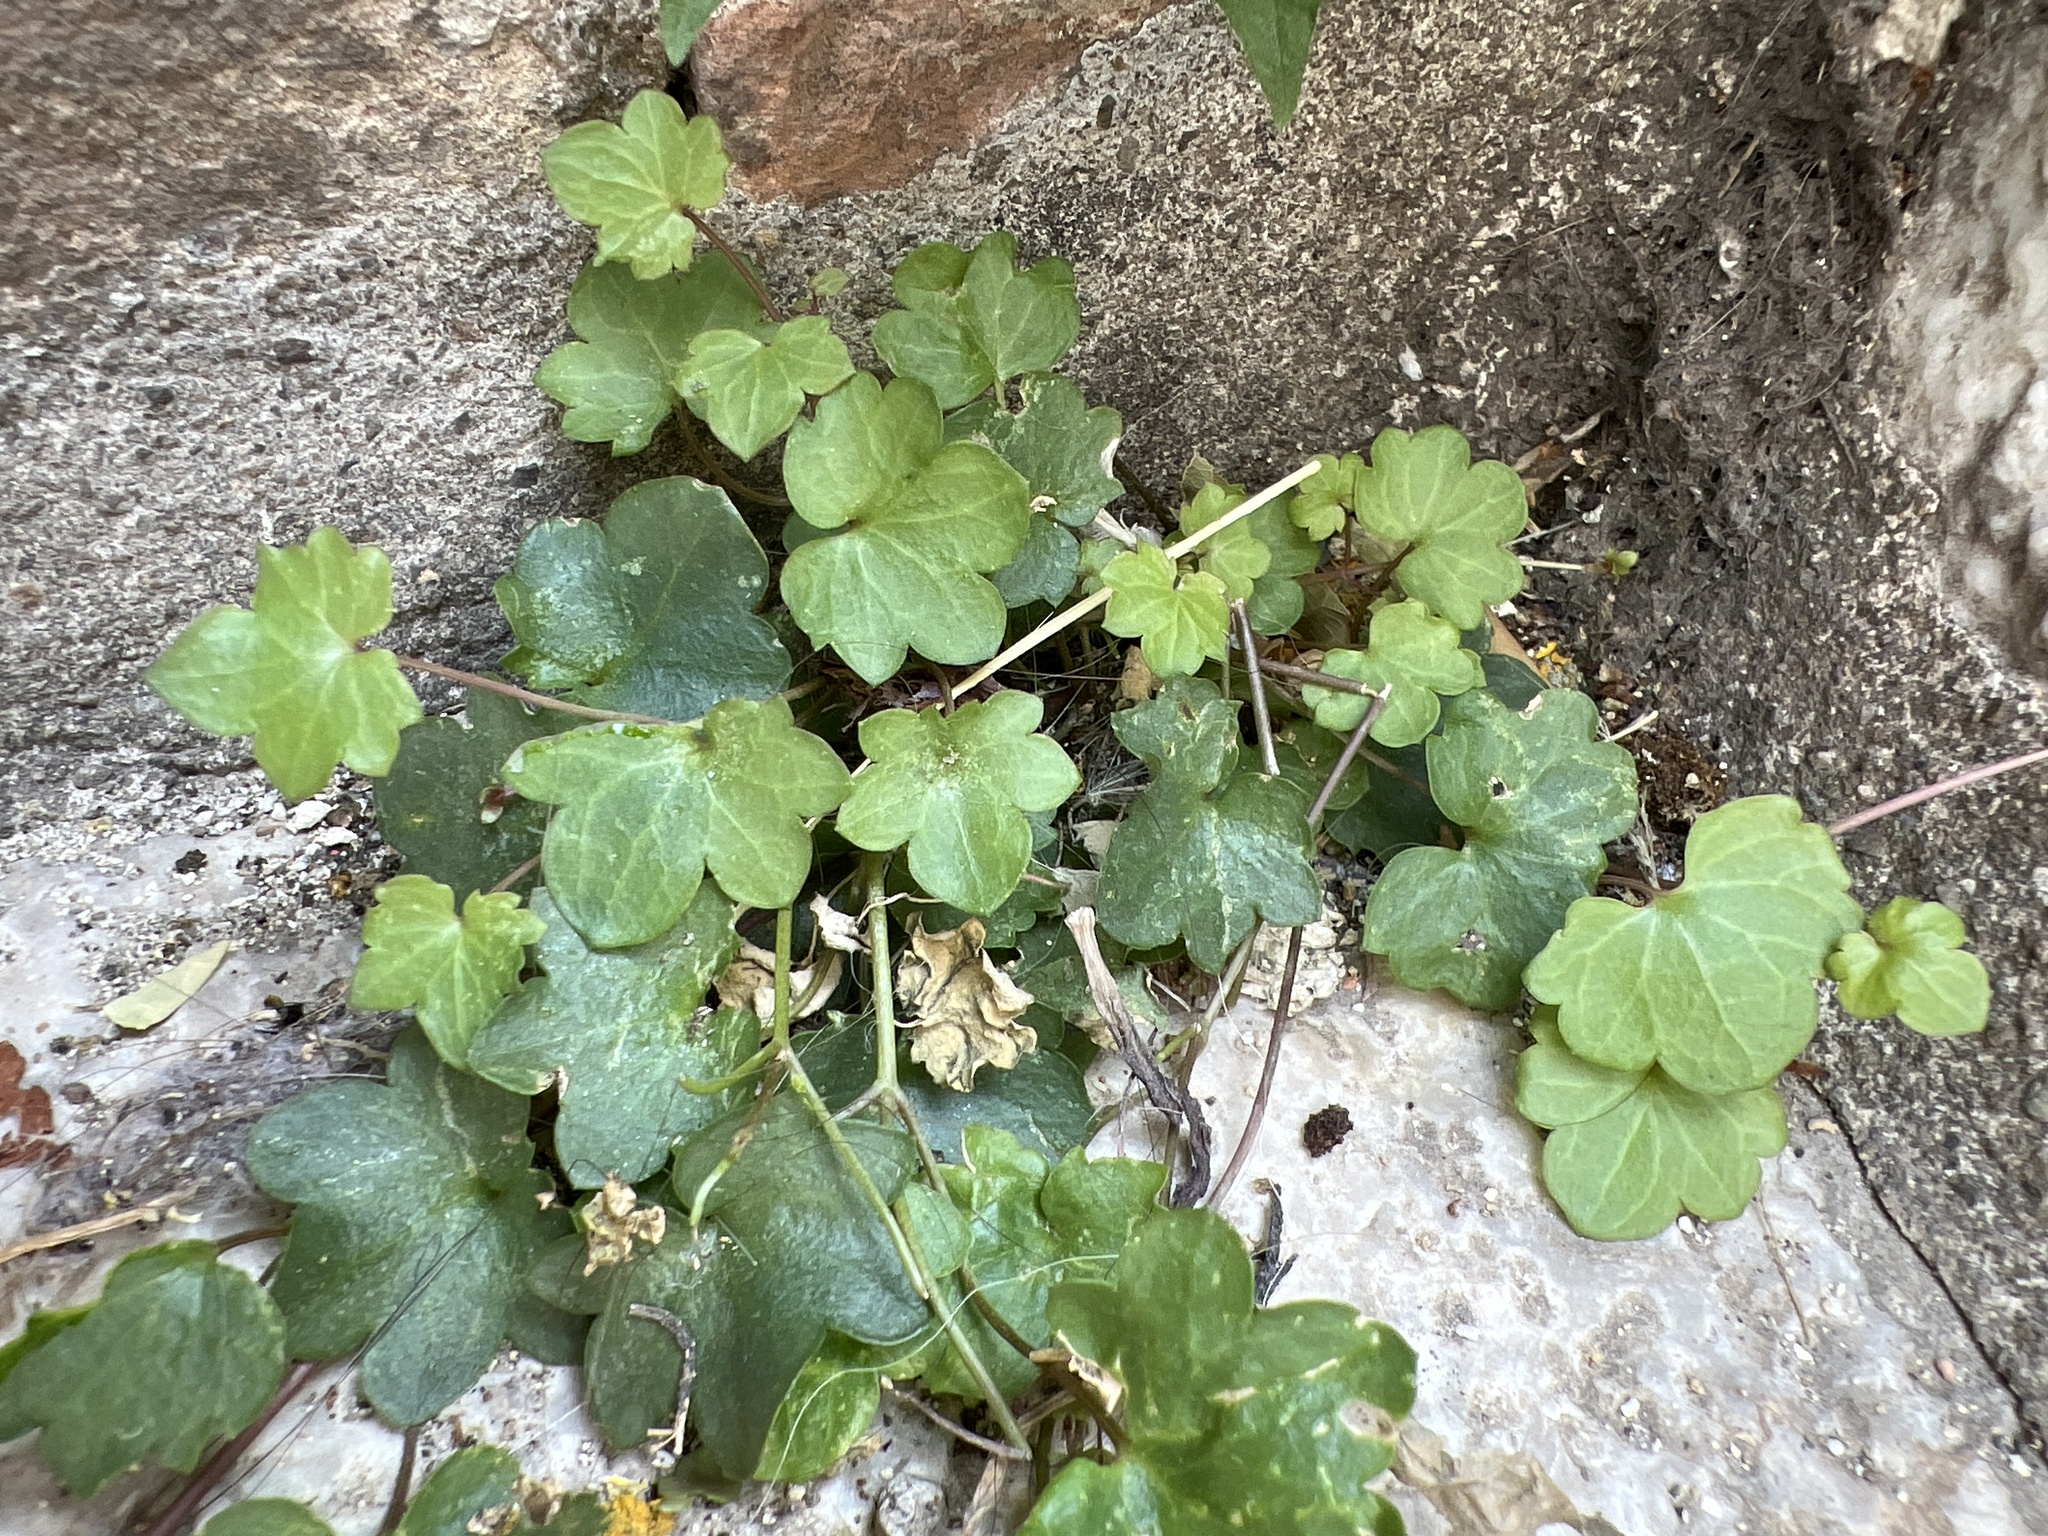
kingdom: Plantae
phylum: Tracheophyta
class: Magnoliopsida
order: Lamiales
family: Plantaginaceae
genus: Cymbalaria
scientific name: Cymbalaria muralis
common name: Ivy-leaved toadflax
